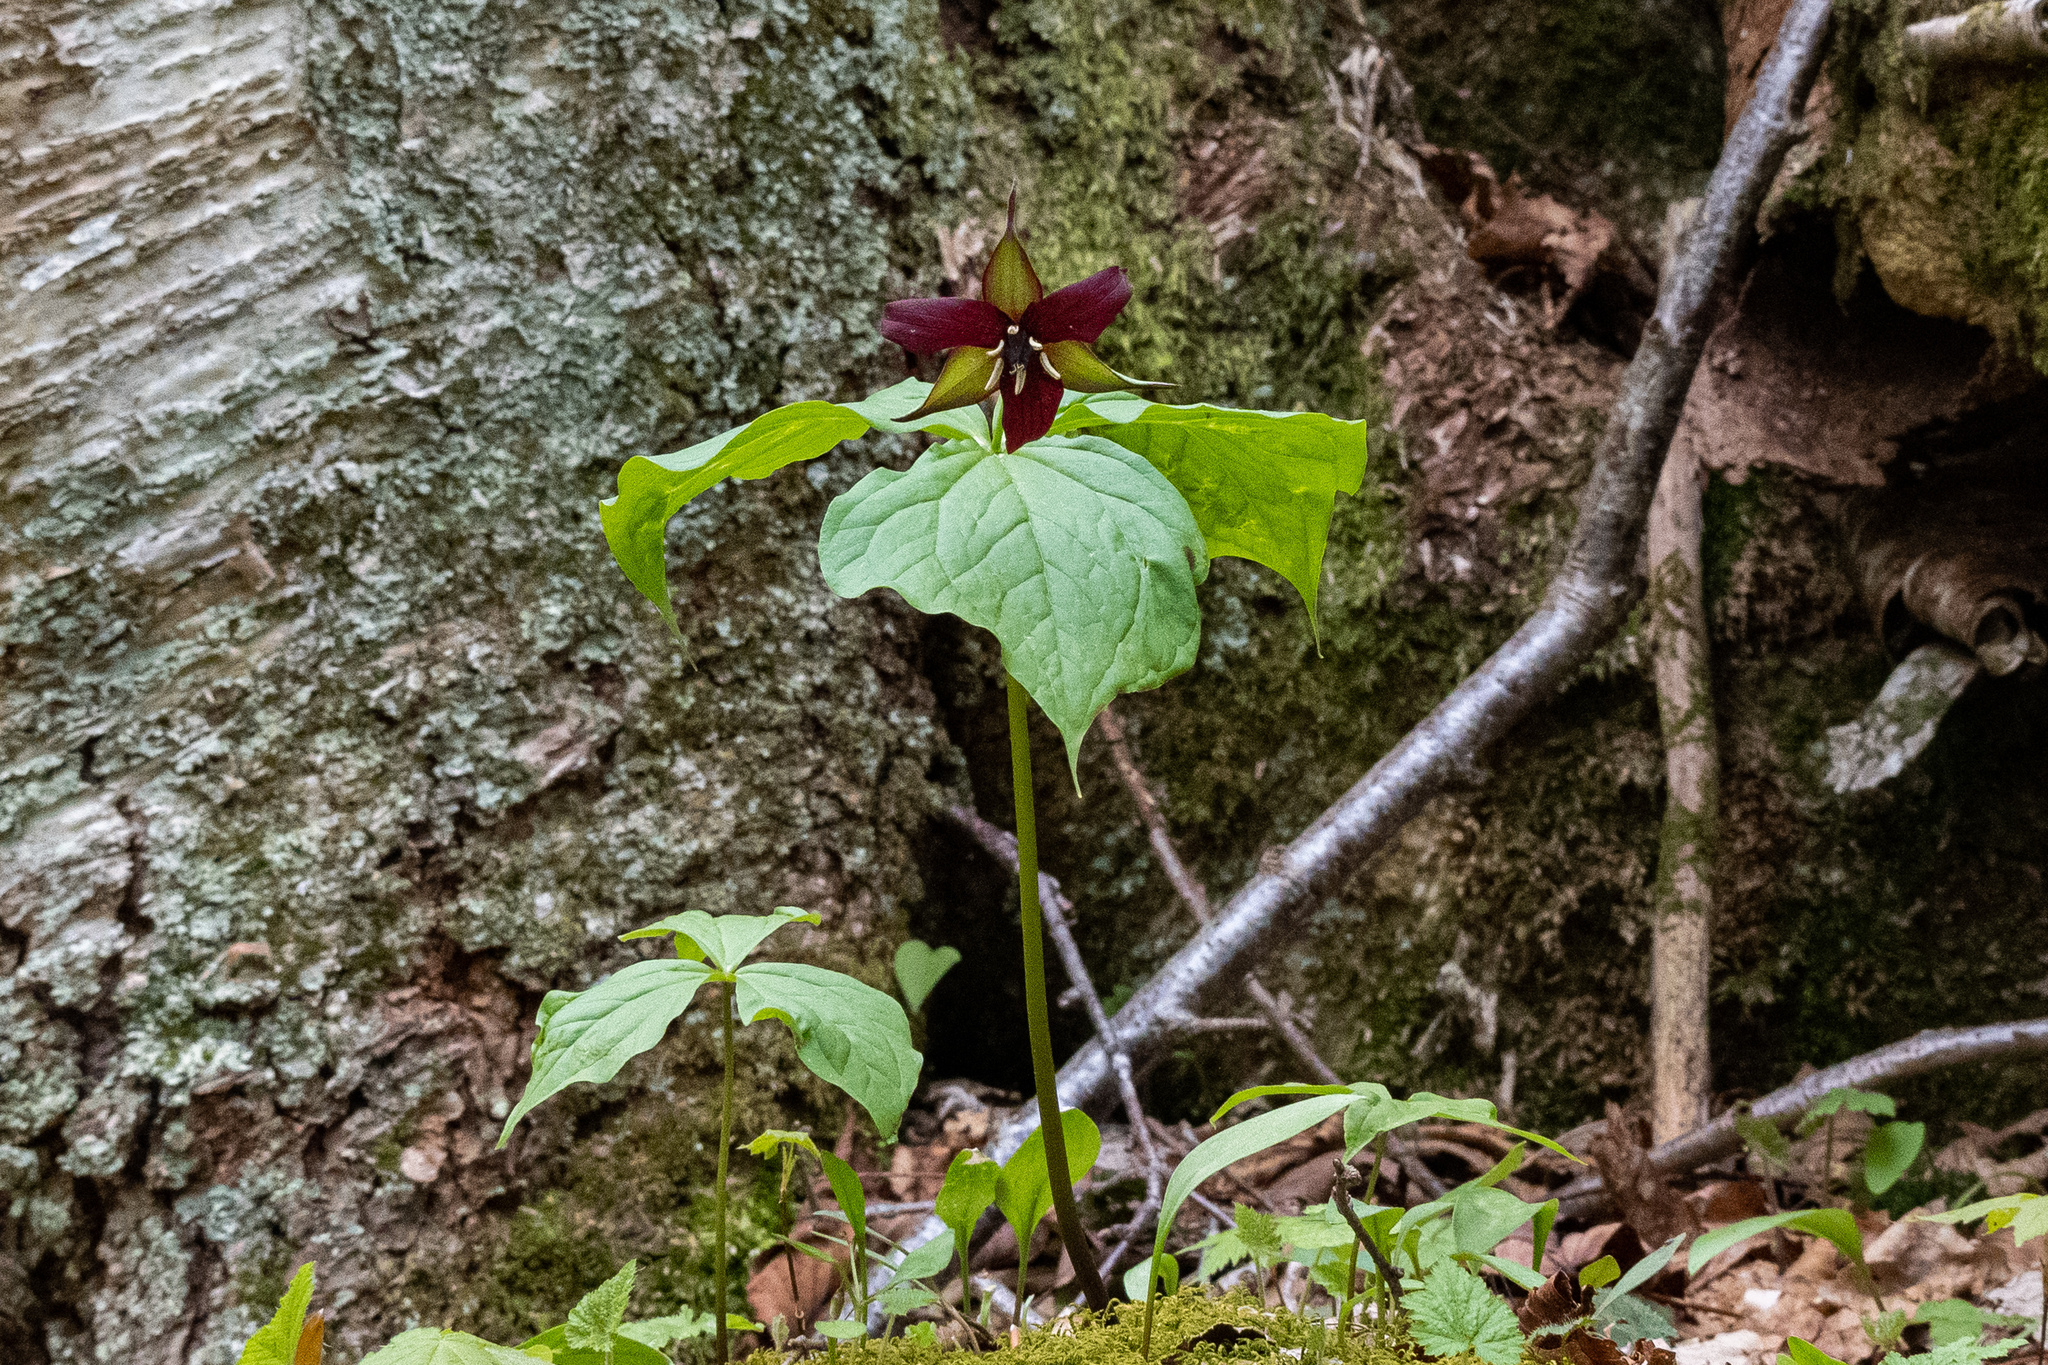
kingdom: Plantae
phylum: Tracheophyta
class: Liliopsida
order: Liliales
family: Melanthiaceae
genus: Trillium
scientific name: Trillium erectum
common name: Purple trillium
